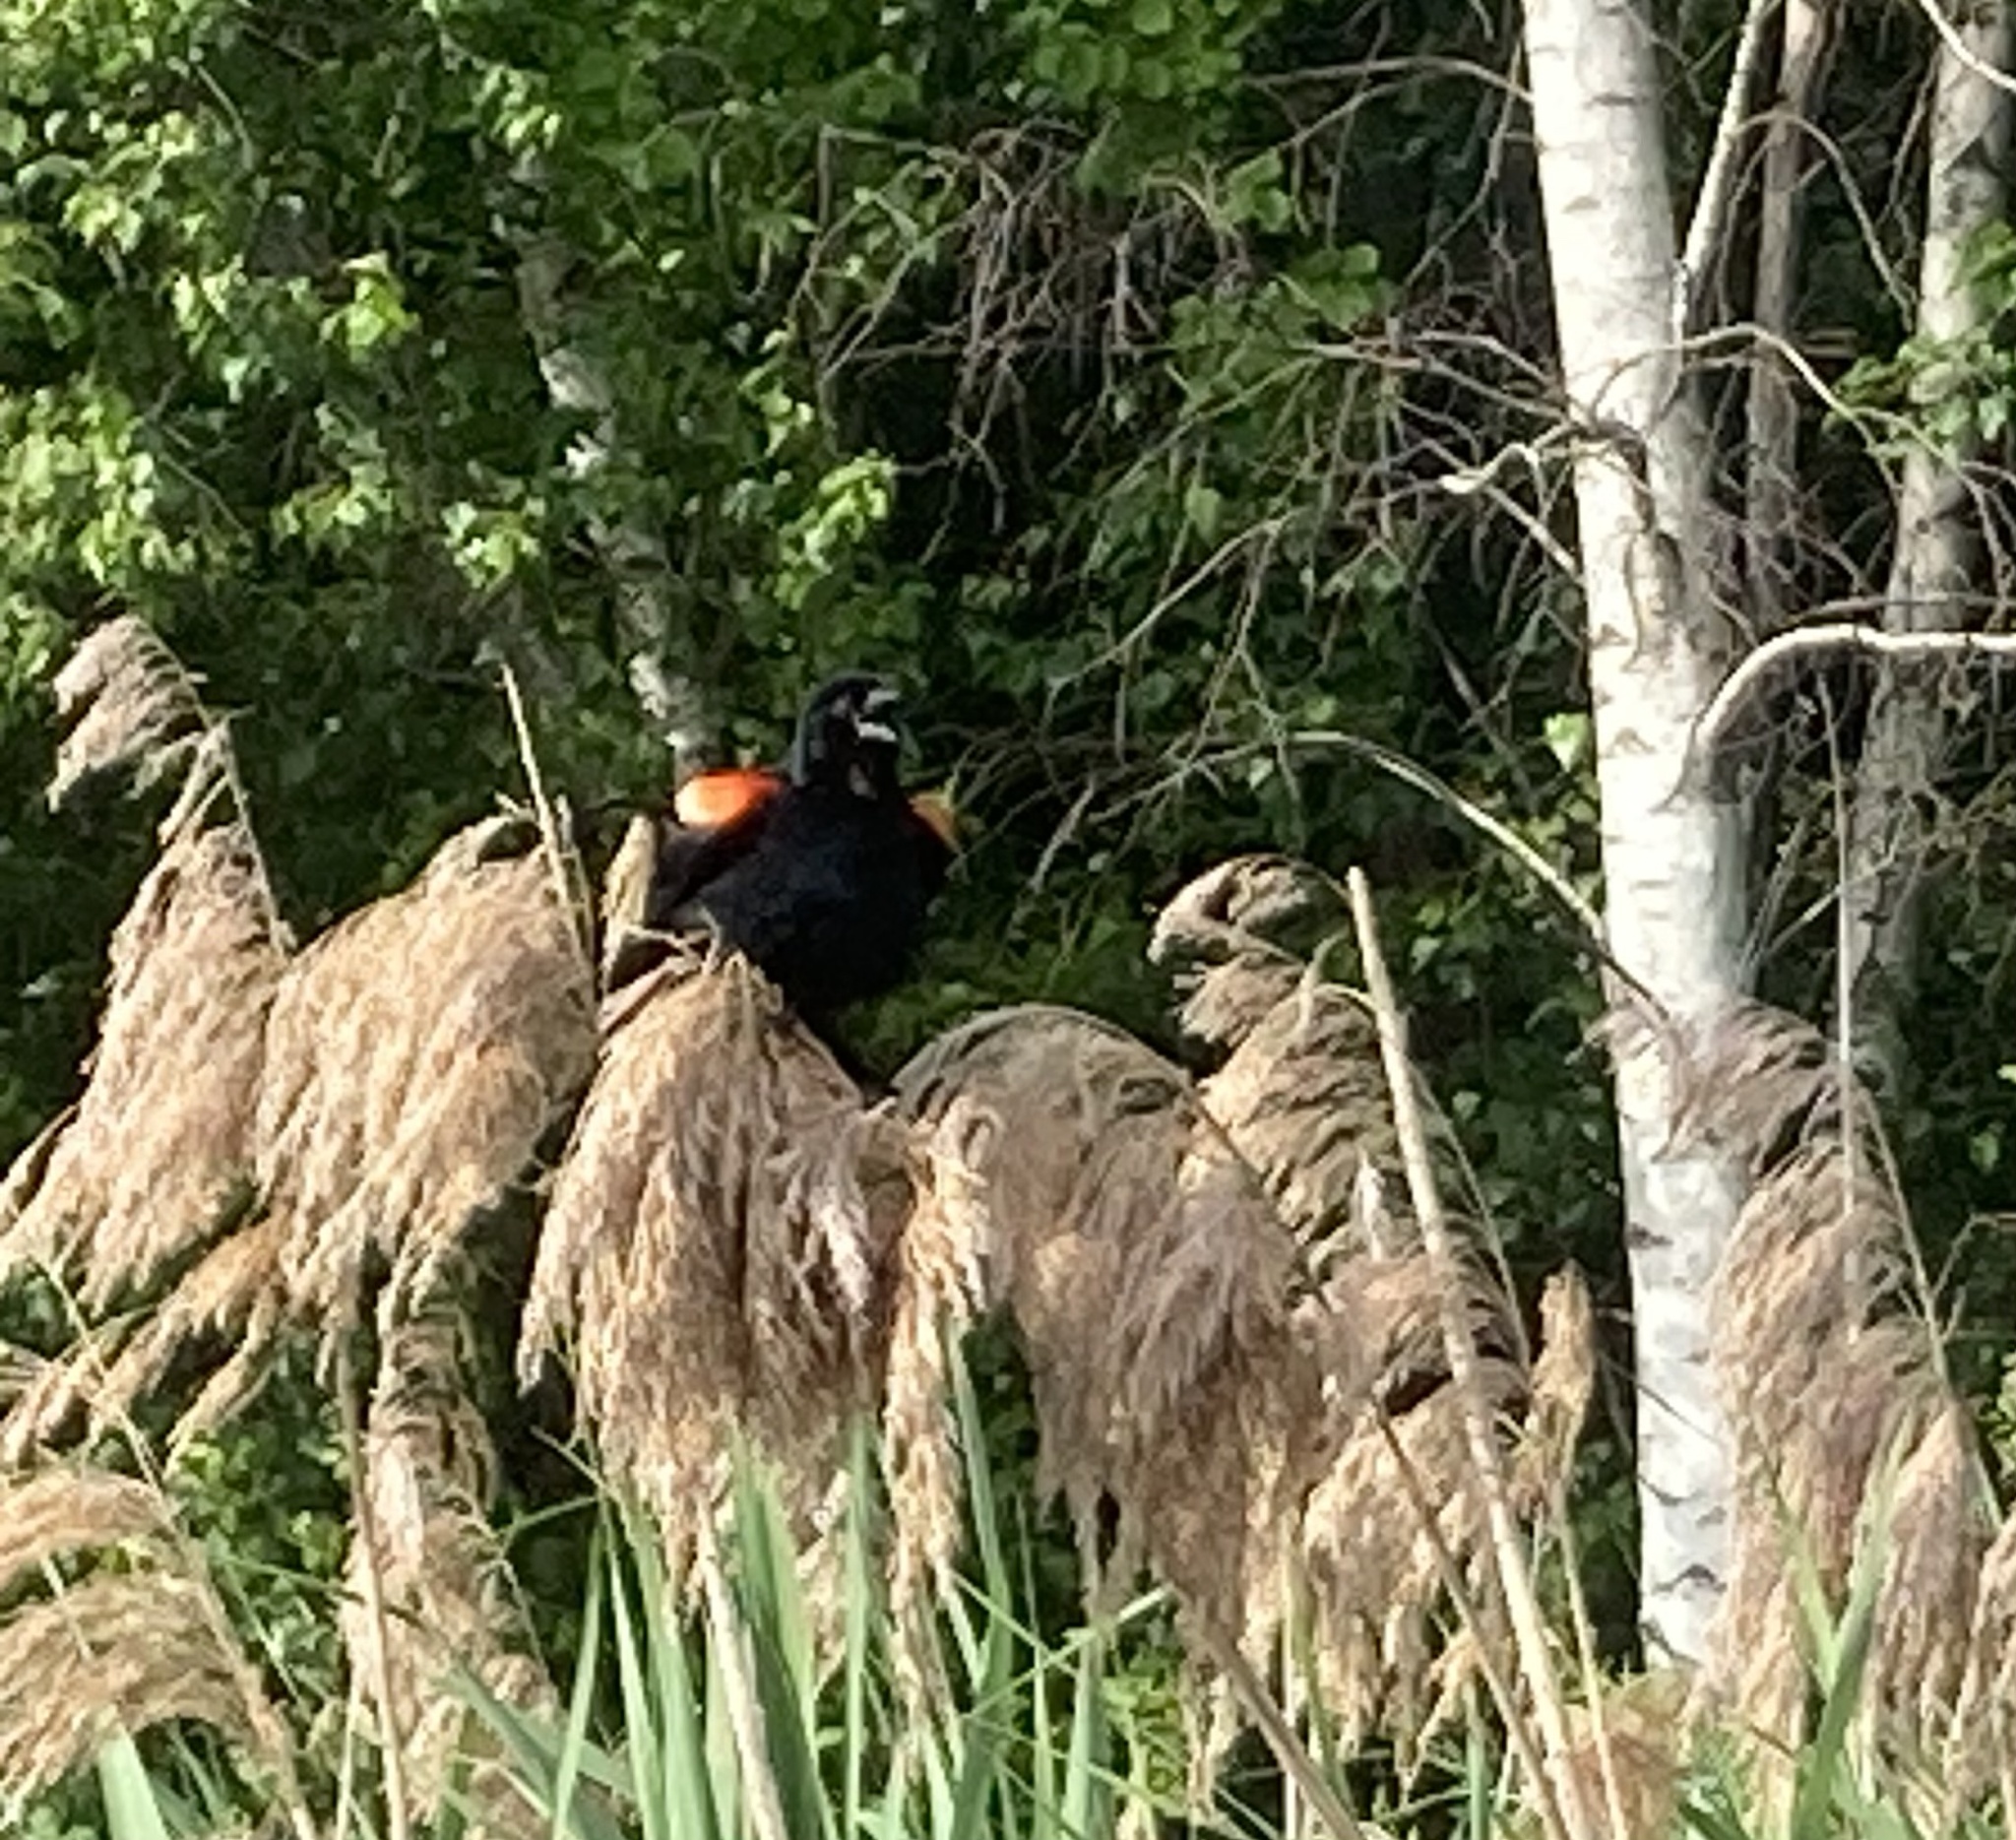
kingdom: Animalia
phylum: Chordata
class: Aves
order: Passeriformes
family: Icteridae
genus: Agelaius
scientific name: Agelaius phoeniceus
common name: Red-winged blackbird
